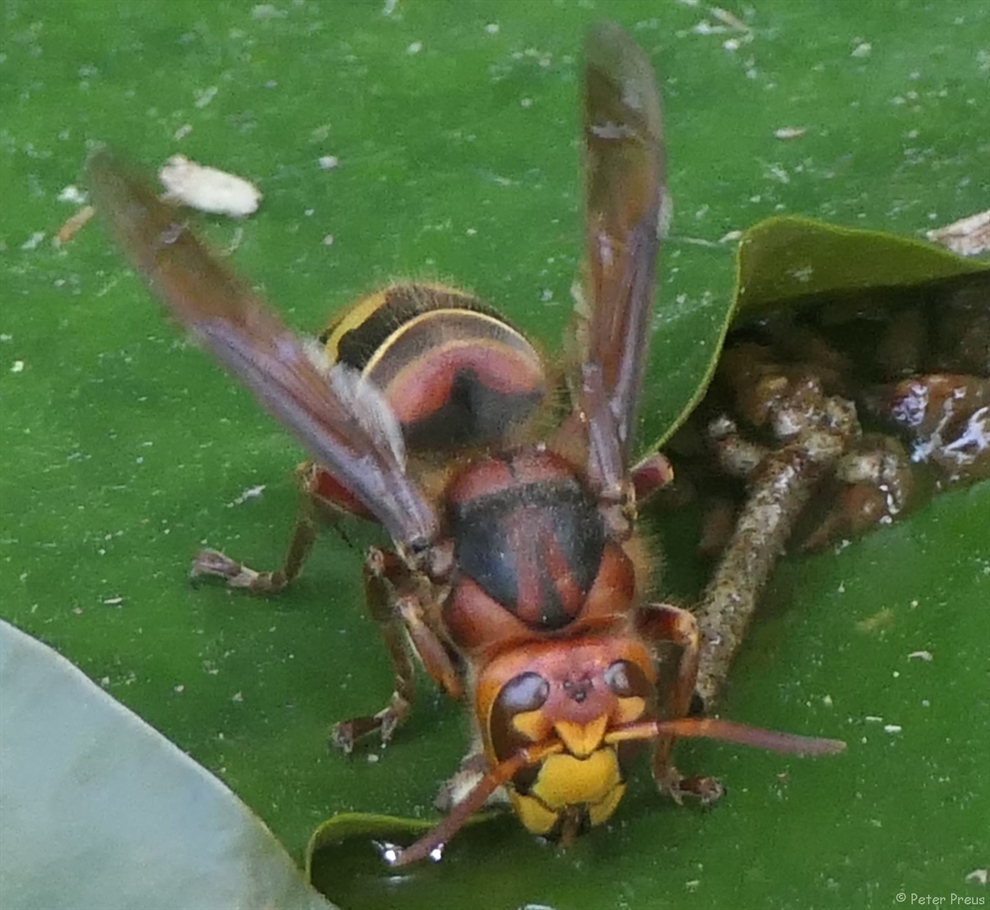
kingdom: Animalia
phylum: Arthropoda
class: Insecta
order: Hymenoptera
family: Vespidae
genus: Vespa
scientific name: Vespa crabro
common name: Hornet
